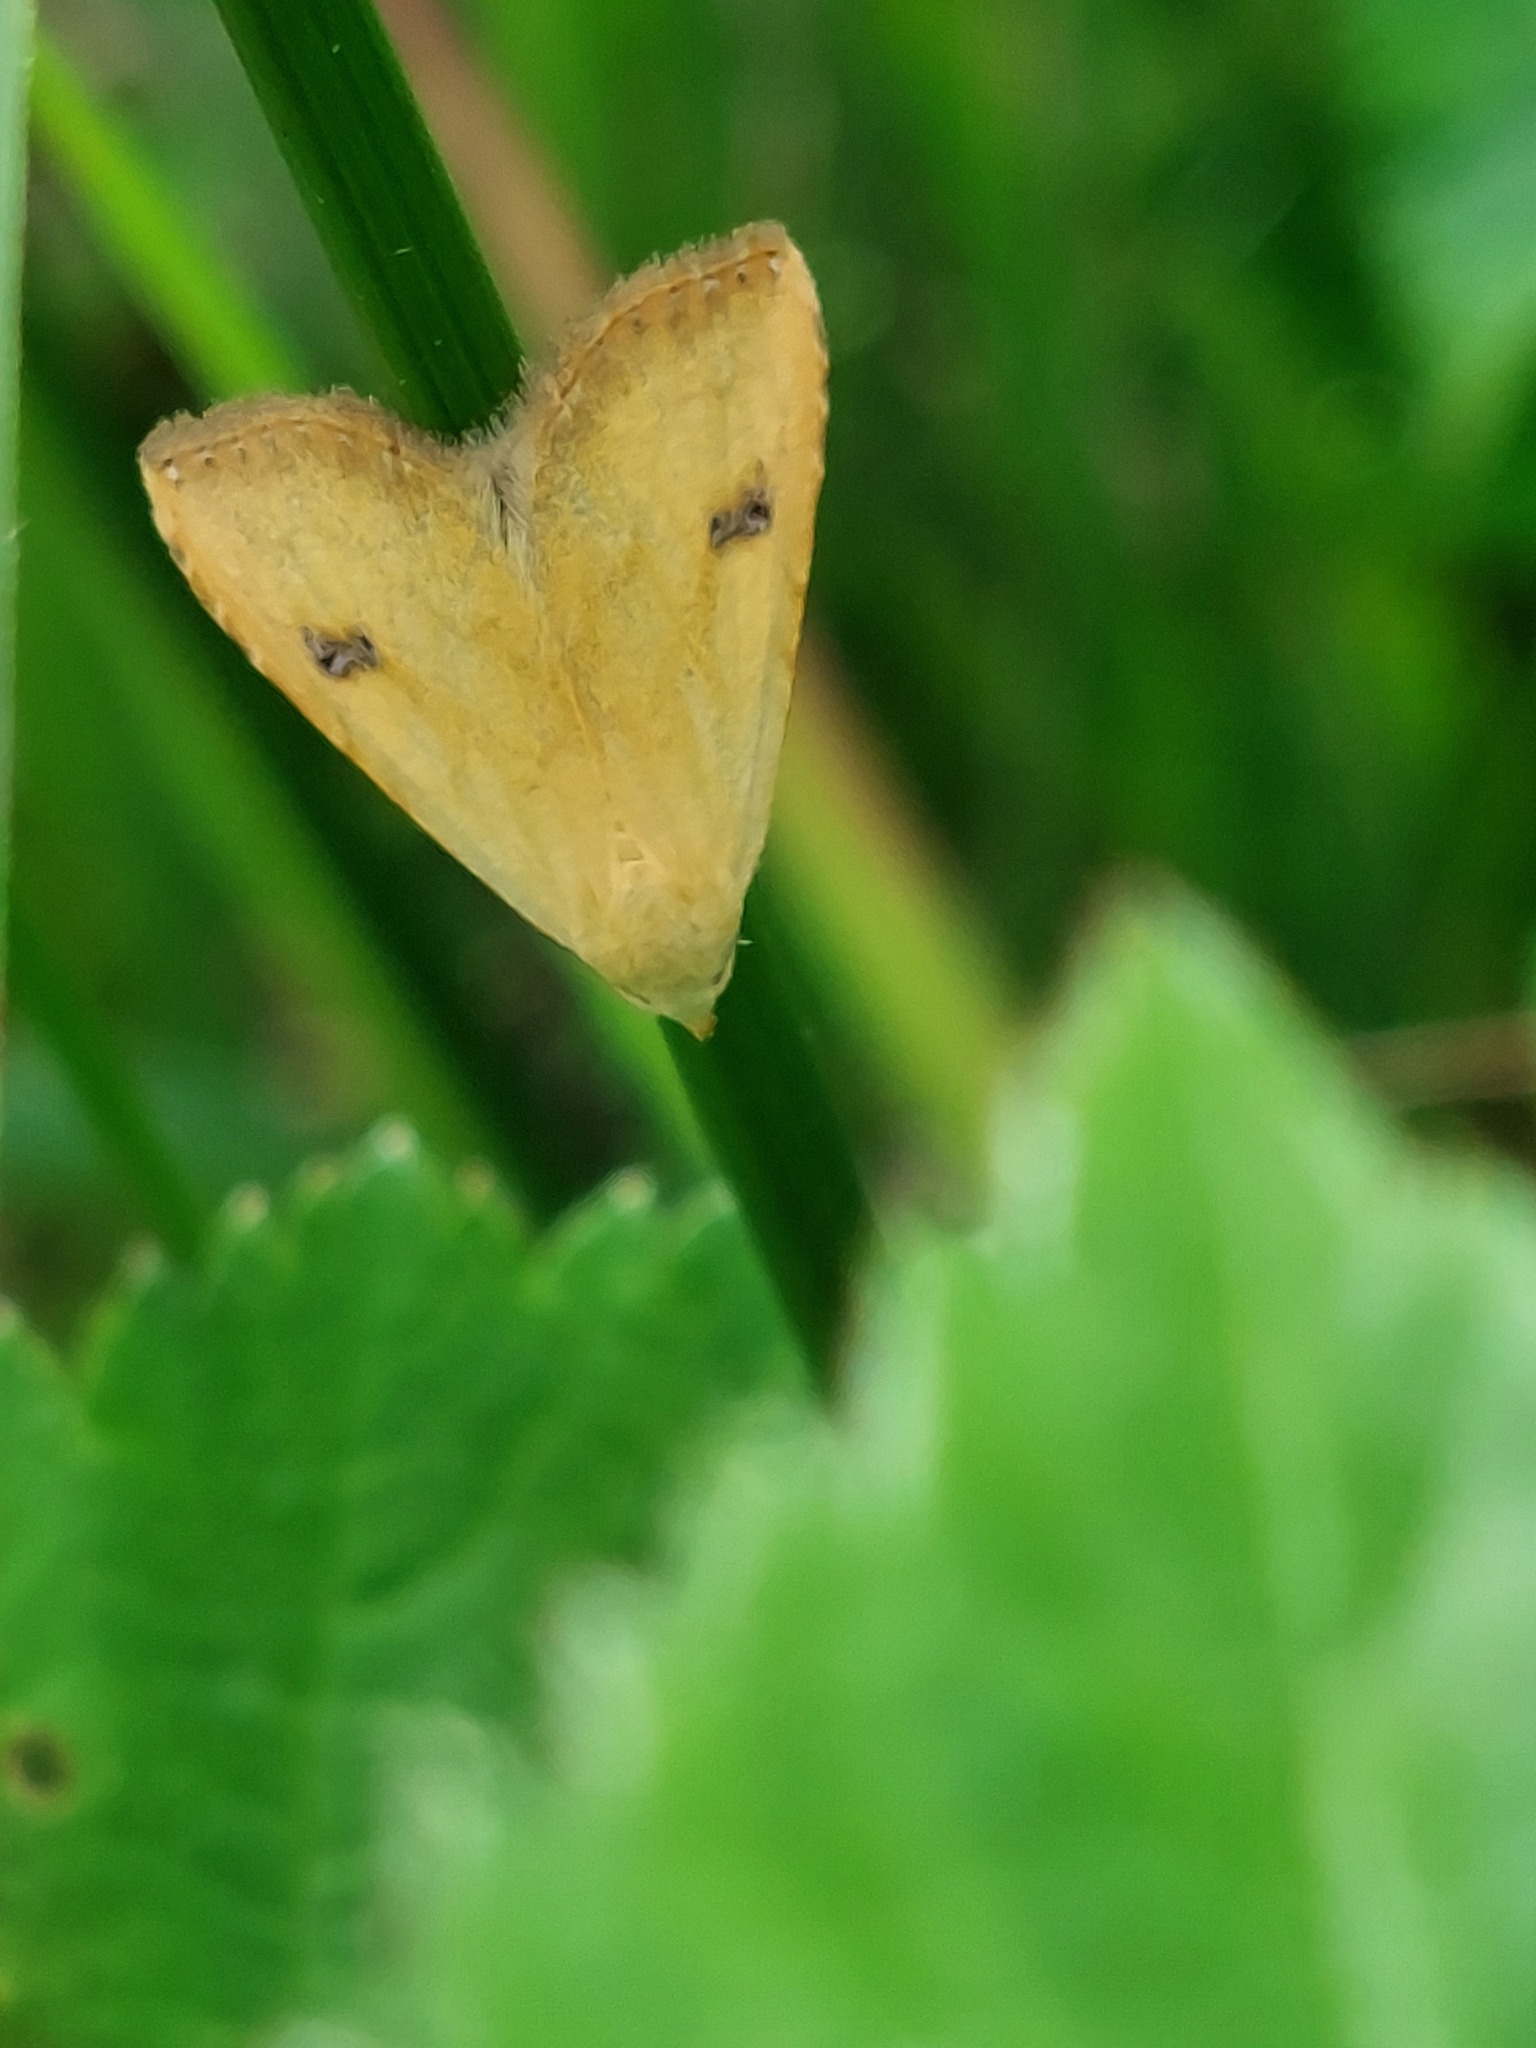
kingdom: Animalia
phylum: Arthropoda
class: Insecta
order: Lepidoptera
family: Erebidae
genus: Rivula
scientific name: Rivula sericealis
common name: Straw dot
